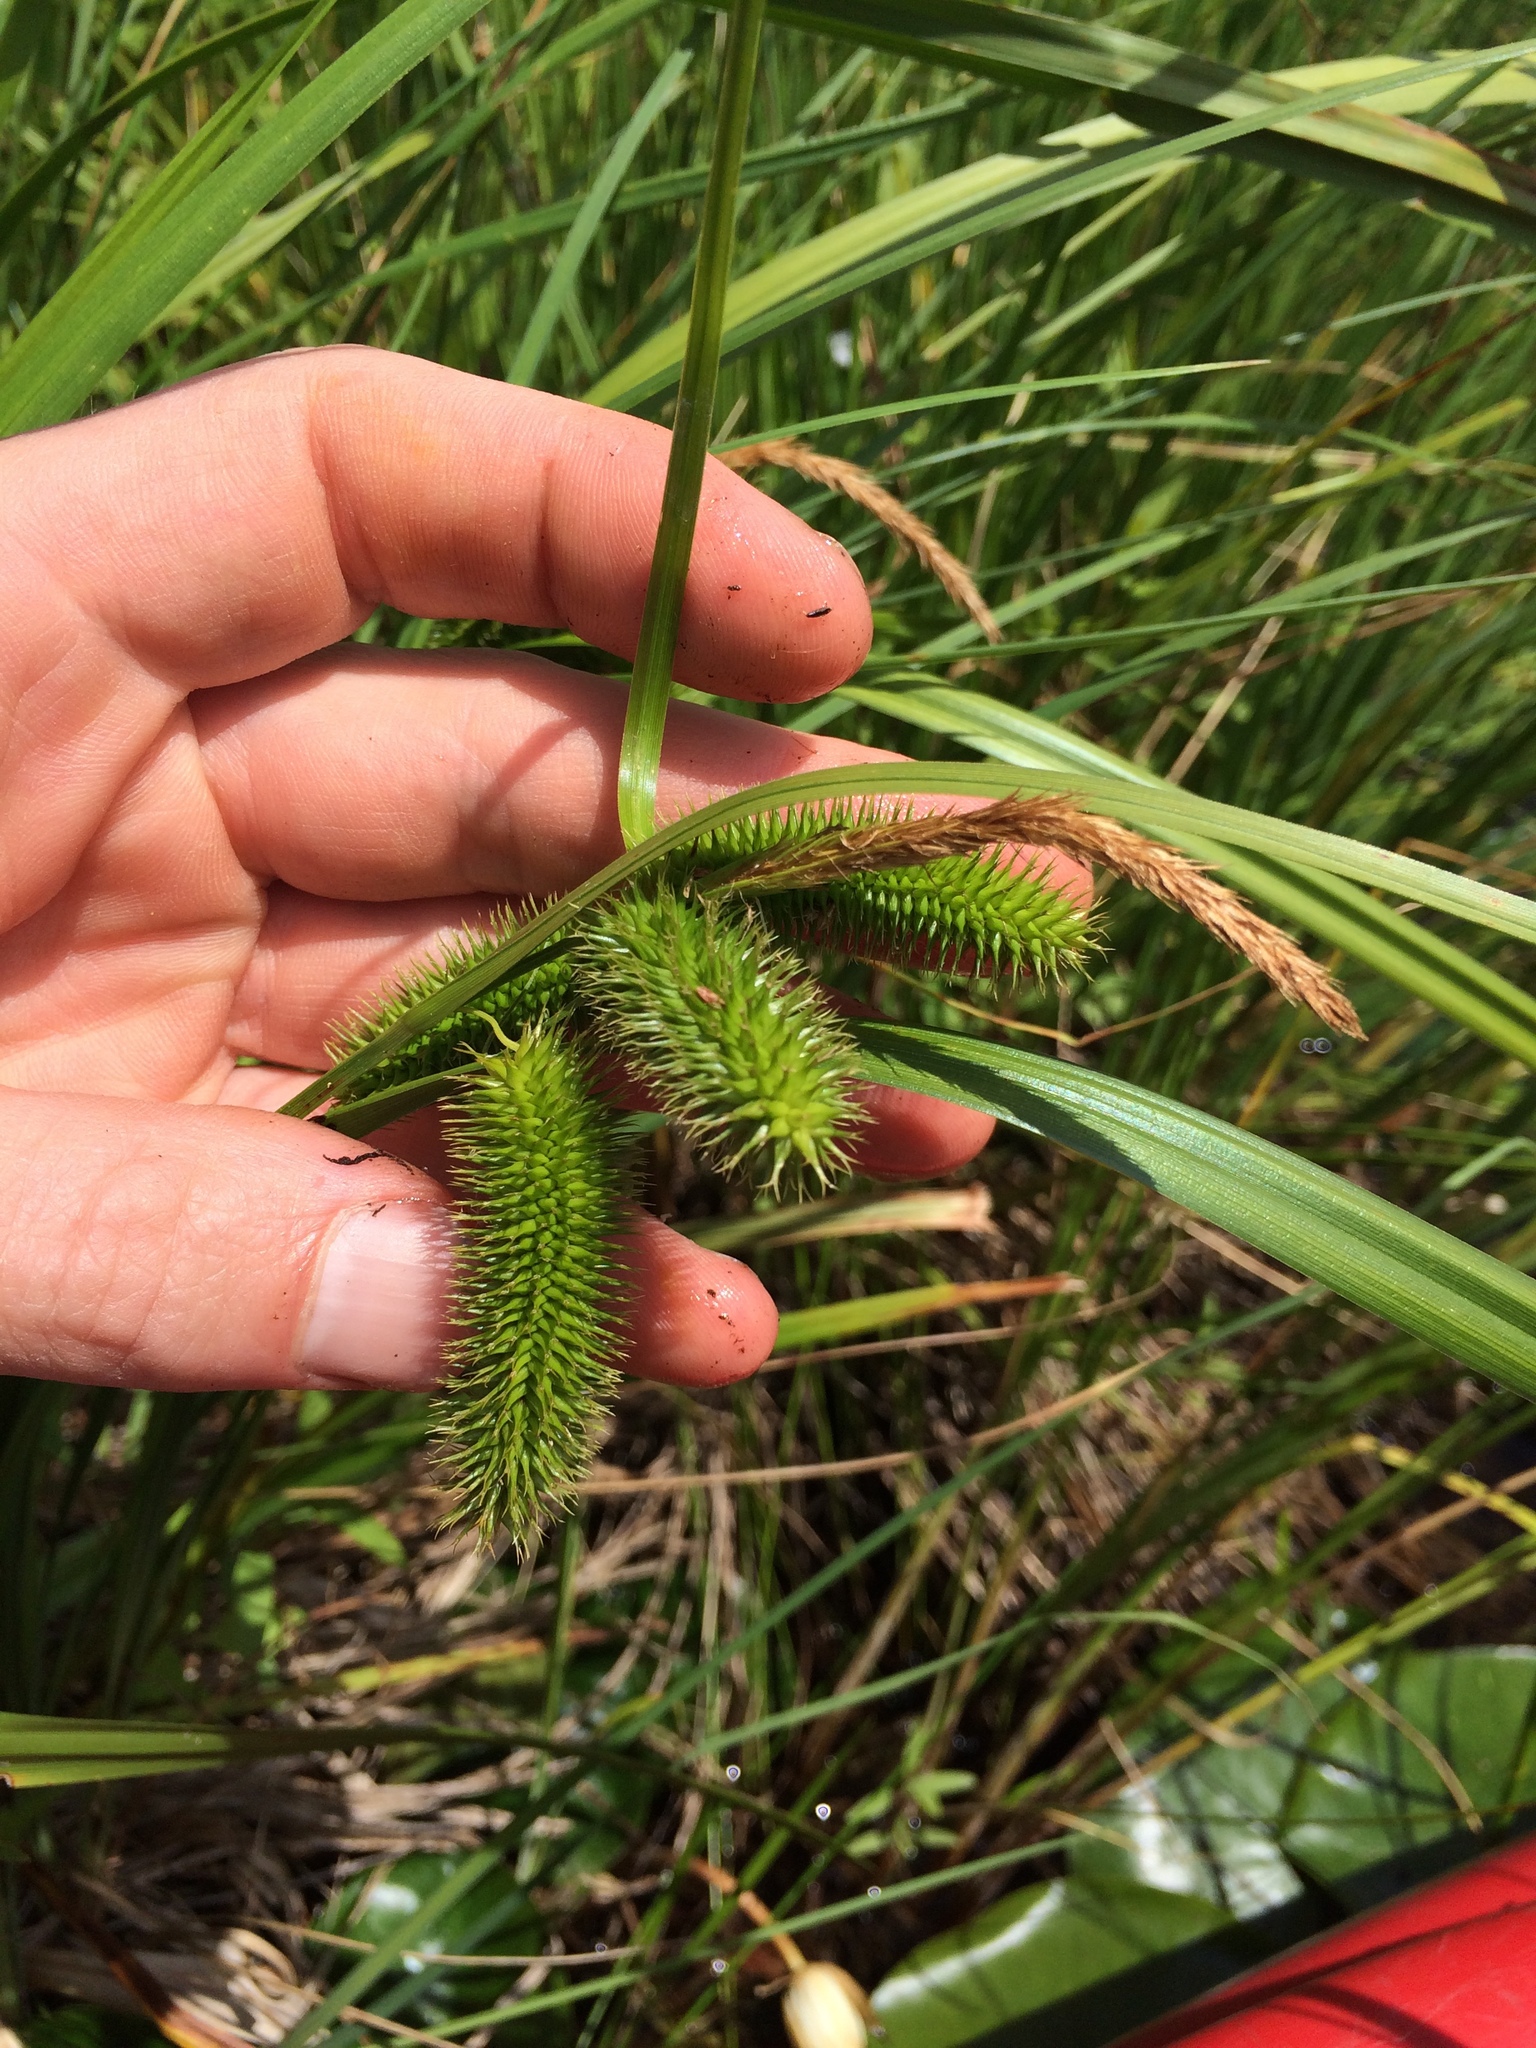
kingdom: Plantae
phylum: Tracheophyta
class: Liliopsida
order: Poales
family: Cyperaceae
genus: Carex
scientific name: Carex comosa
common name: Bristly sedge
